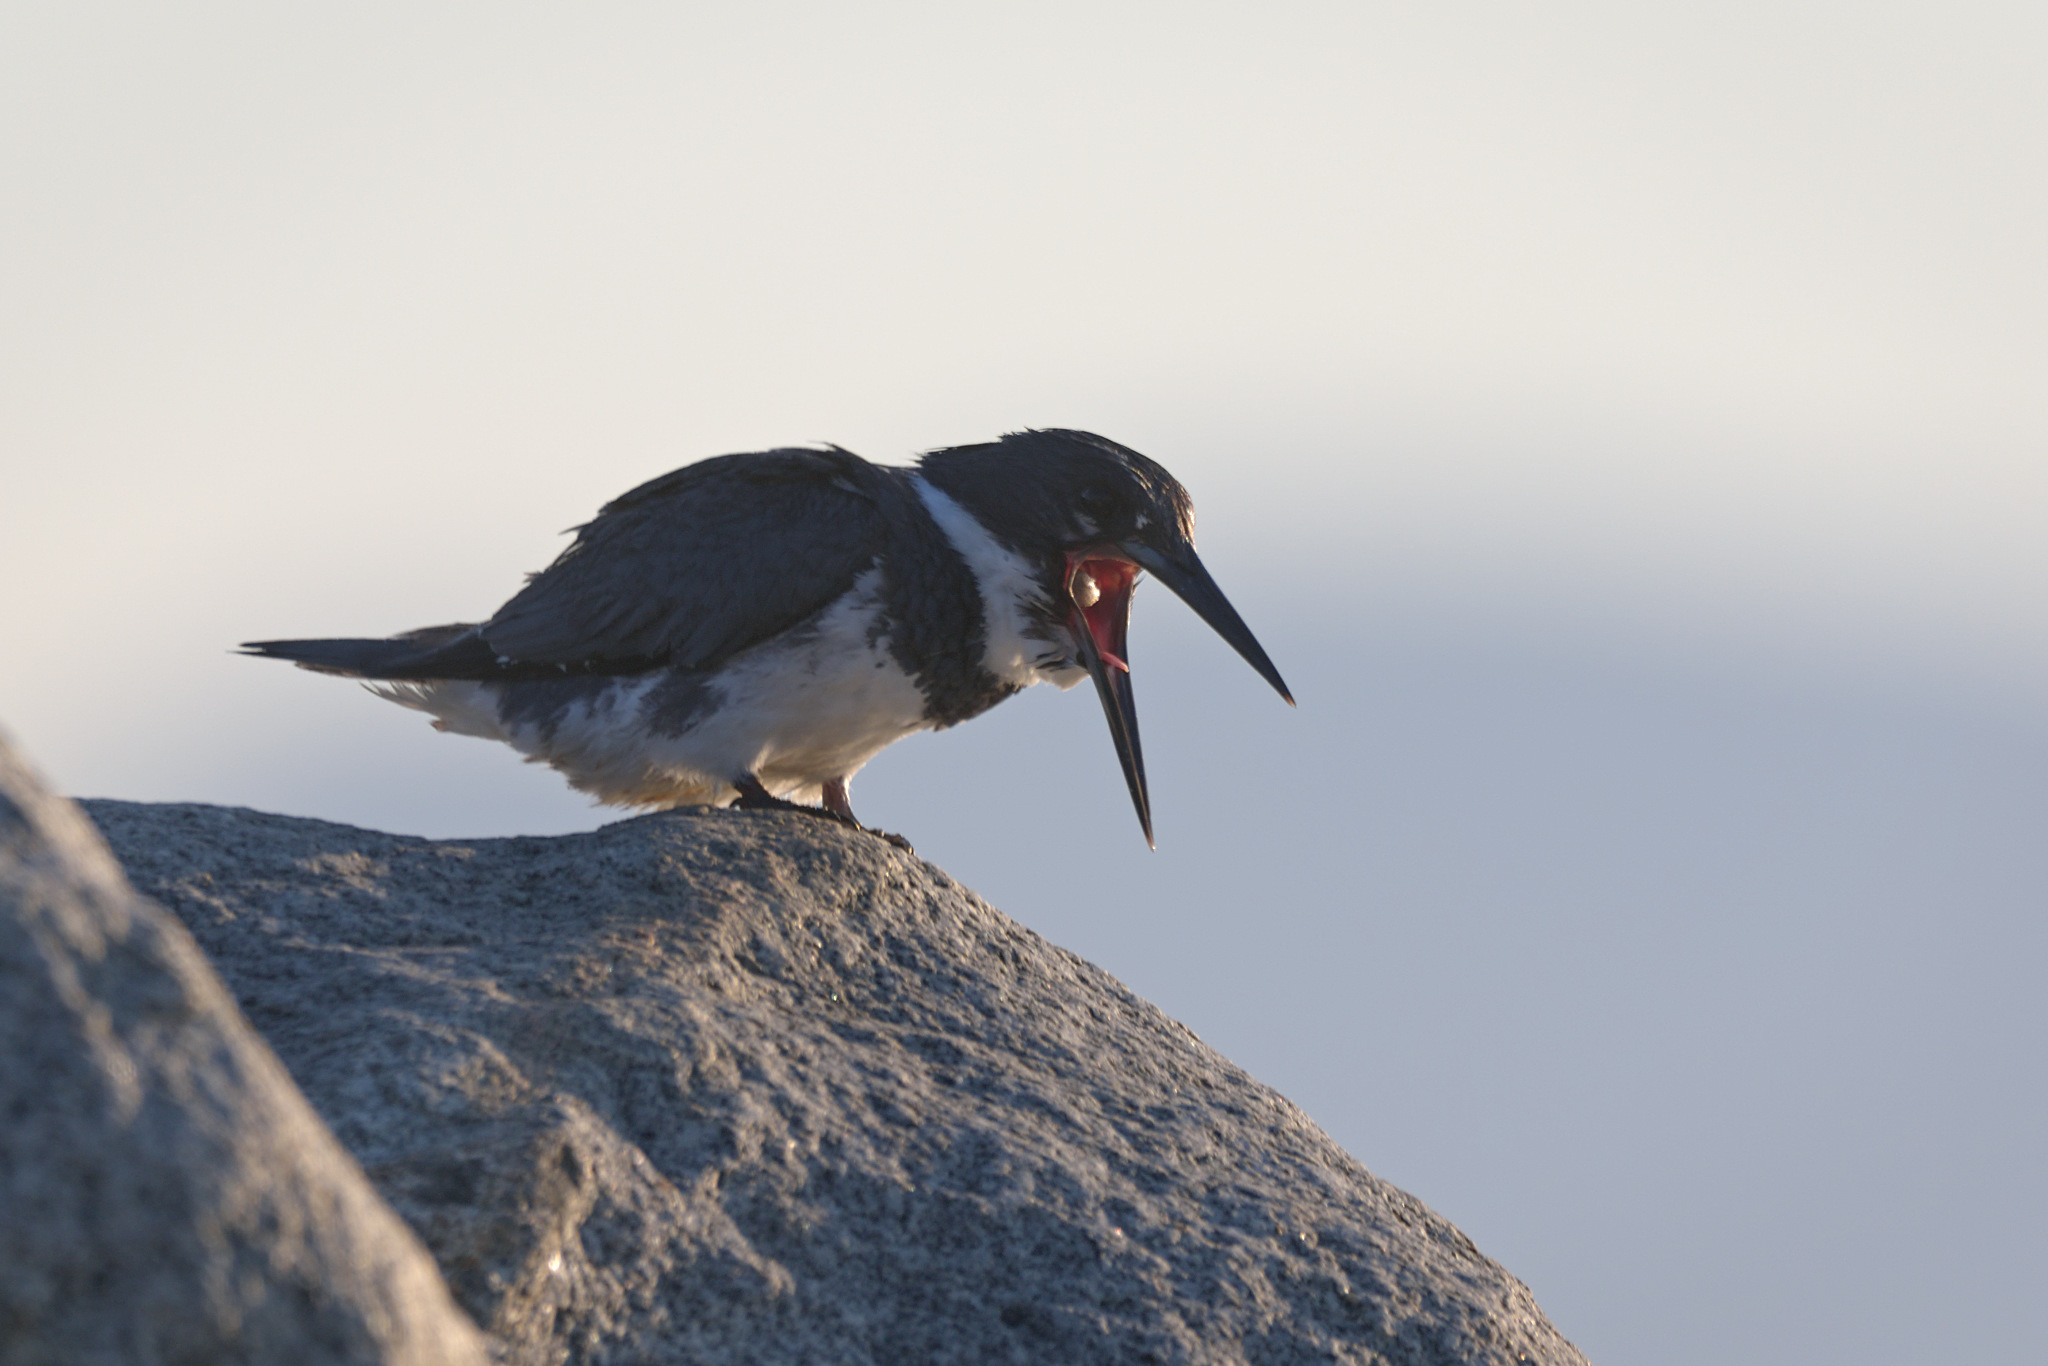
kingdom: Animalia
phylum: Chordata
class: Aves
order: Coraciiformes
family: Alcedinidae
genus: Megaceryle
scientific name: Megaceryle alcyon
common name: Belted kingfisher
